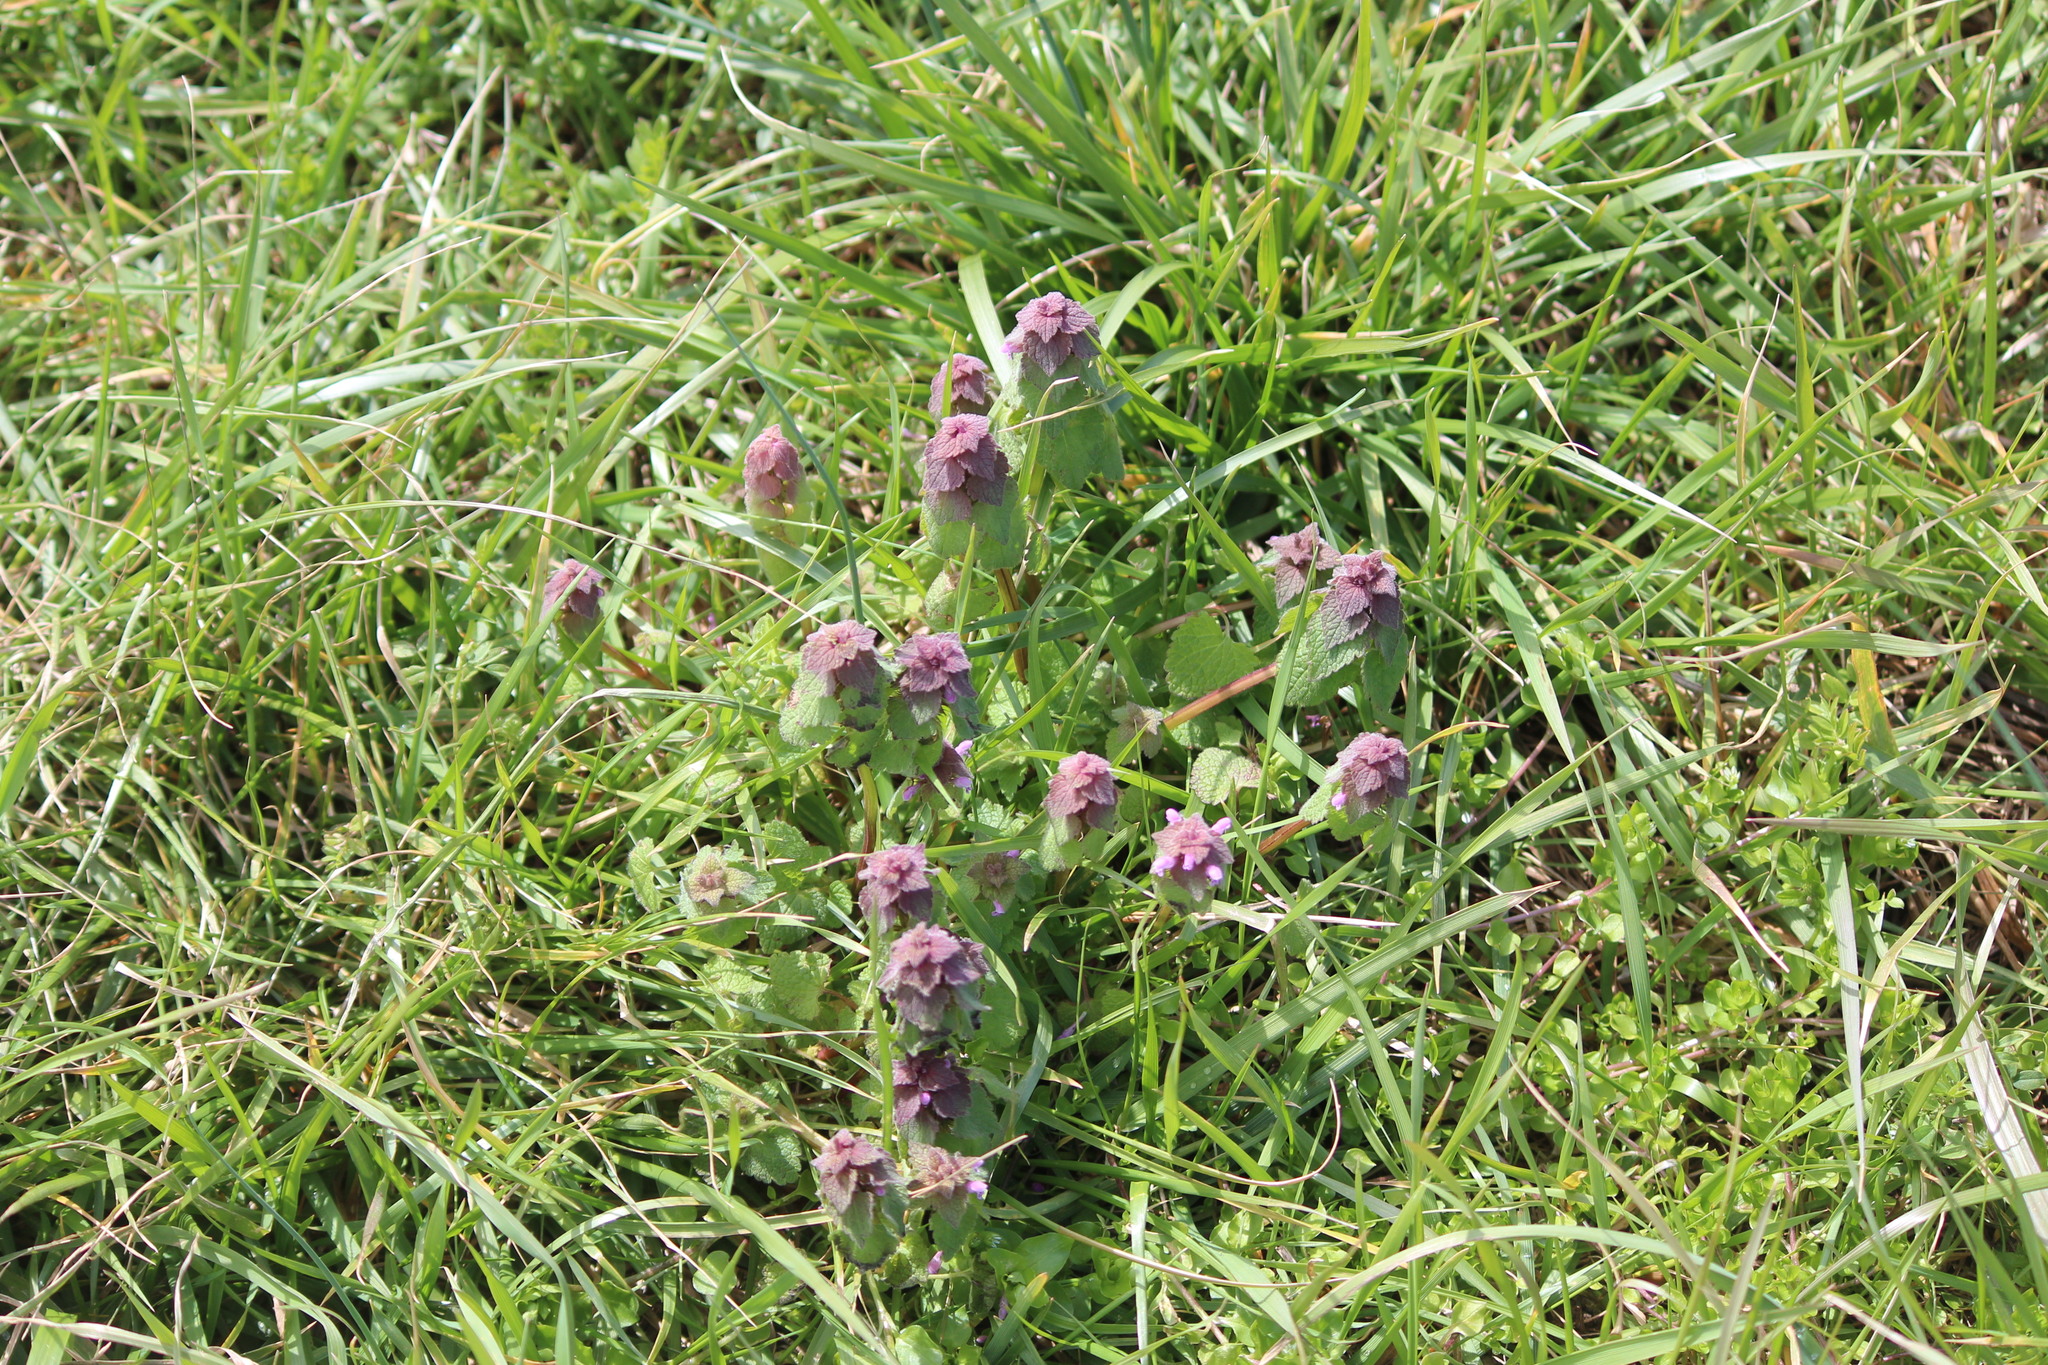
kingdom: Plantae
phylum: Tracheophyta
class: Magnoliopsida
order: Lamiales
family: Lamiaceae
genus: Lamium
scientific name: Lamium purpureum
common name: Red dead-nettle
